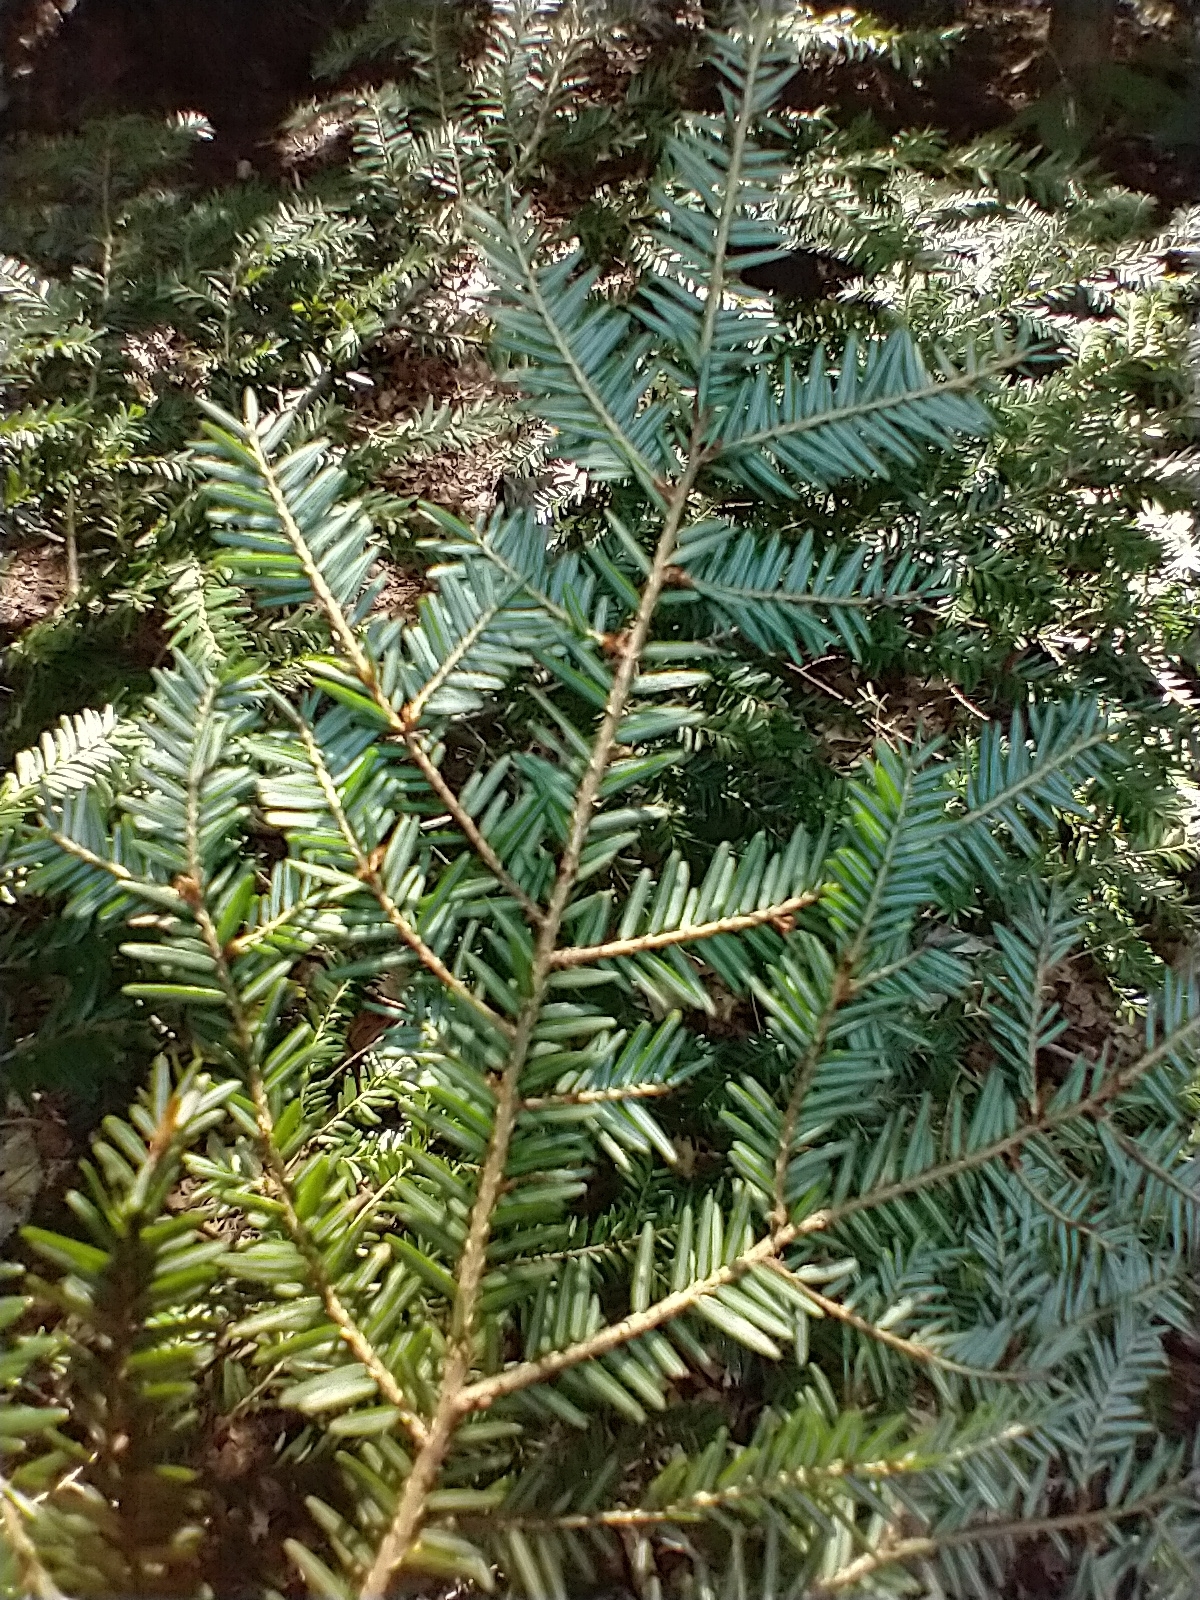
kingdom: Plantae
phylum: Tracheophyta
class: Pinopsida
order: Pinales
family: Pinaceae
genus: Tsuga
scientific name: Tsuga canadensis
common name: Eastern hemlock
